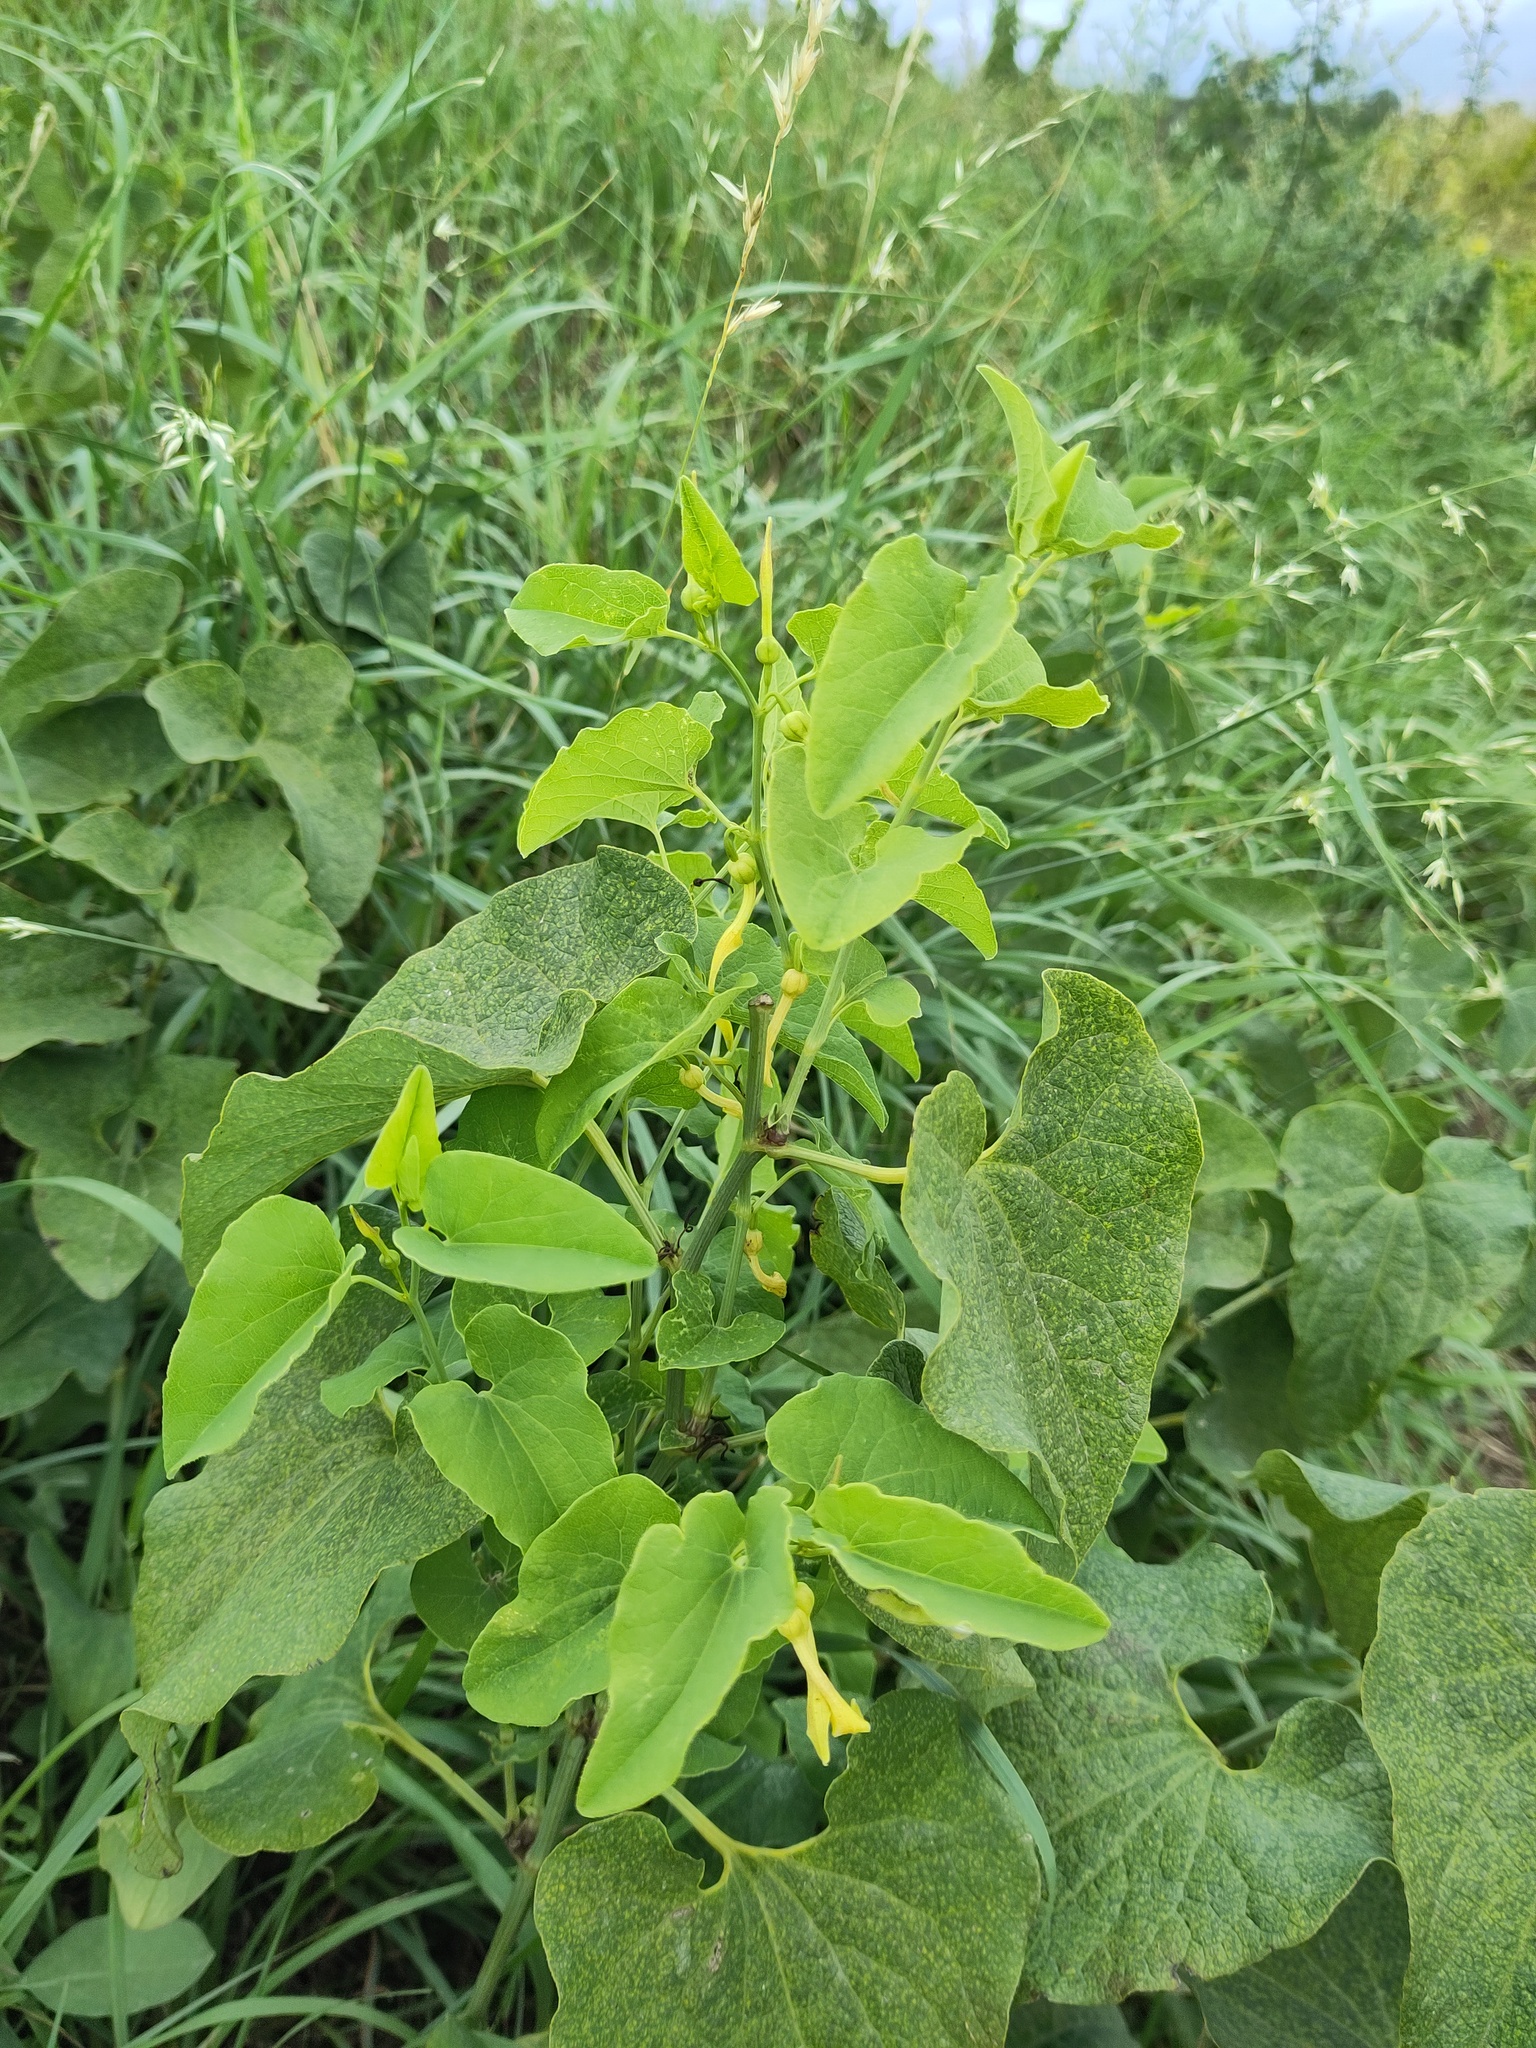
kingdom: Plantae
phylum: Tracheophyta
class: Magnoliopsida
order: Piperales
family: Aristolochiaceae
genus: Aristolochia
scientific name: Aristolochia clematitis
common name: Birthwort
